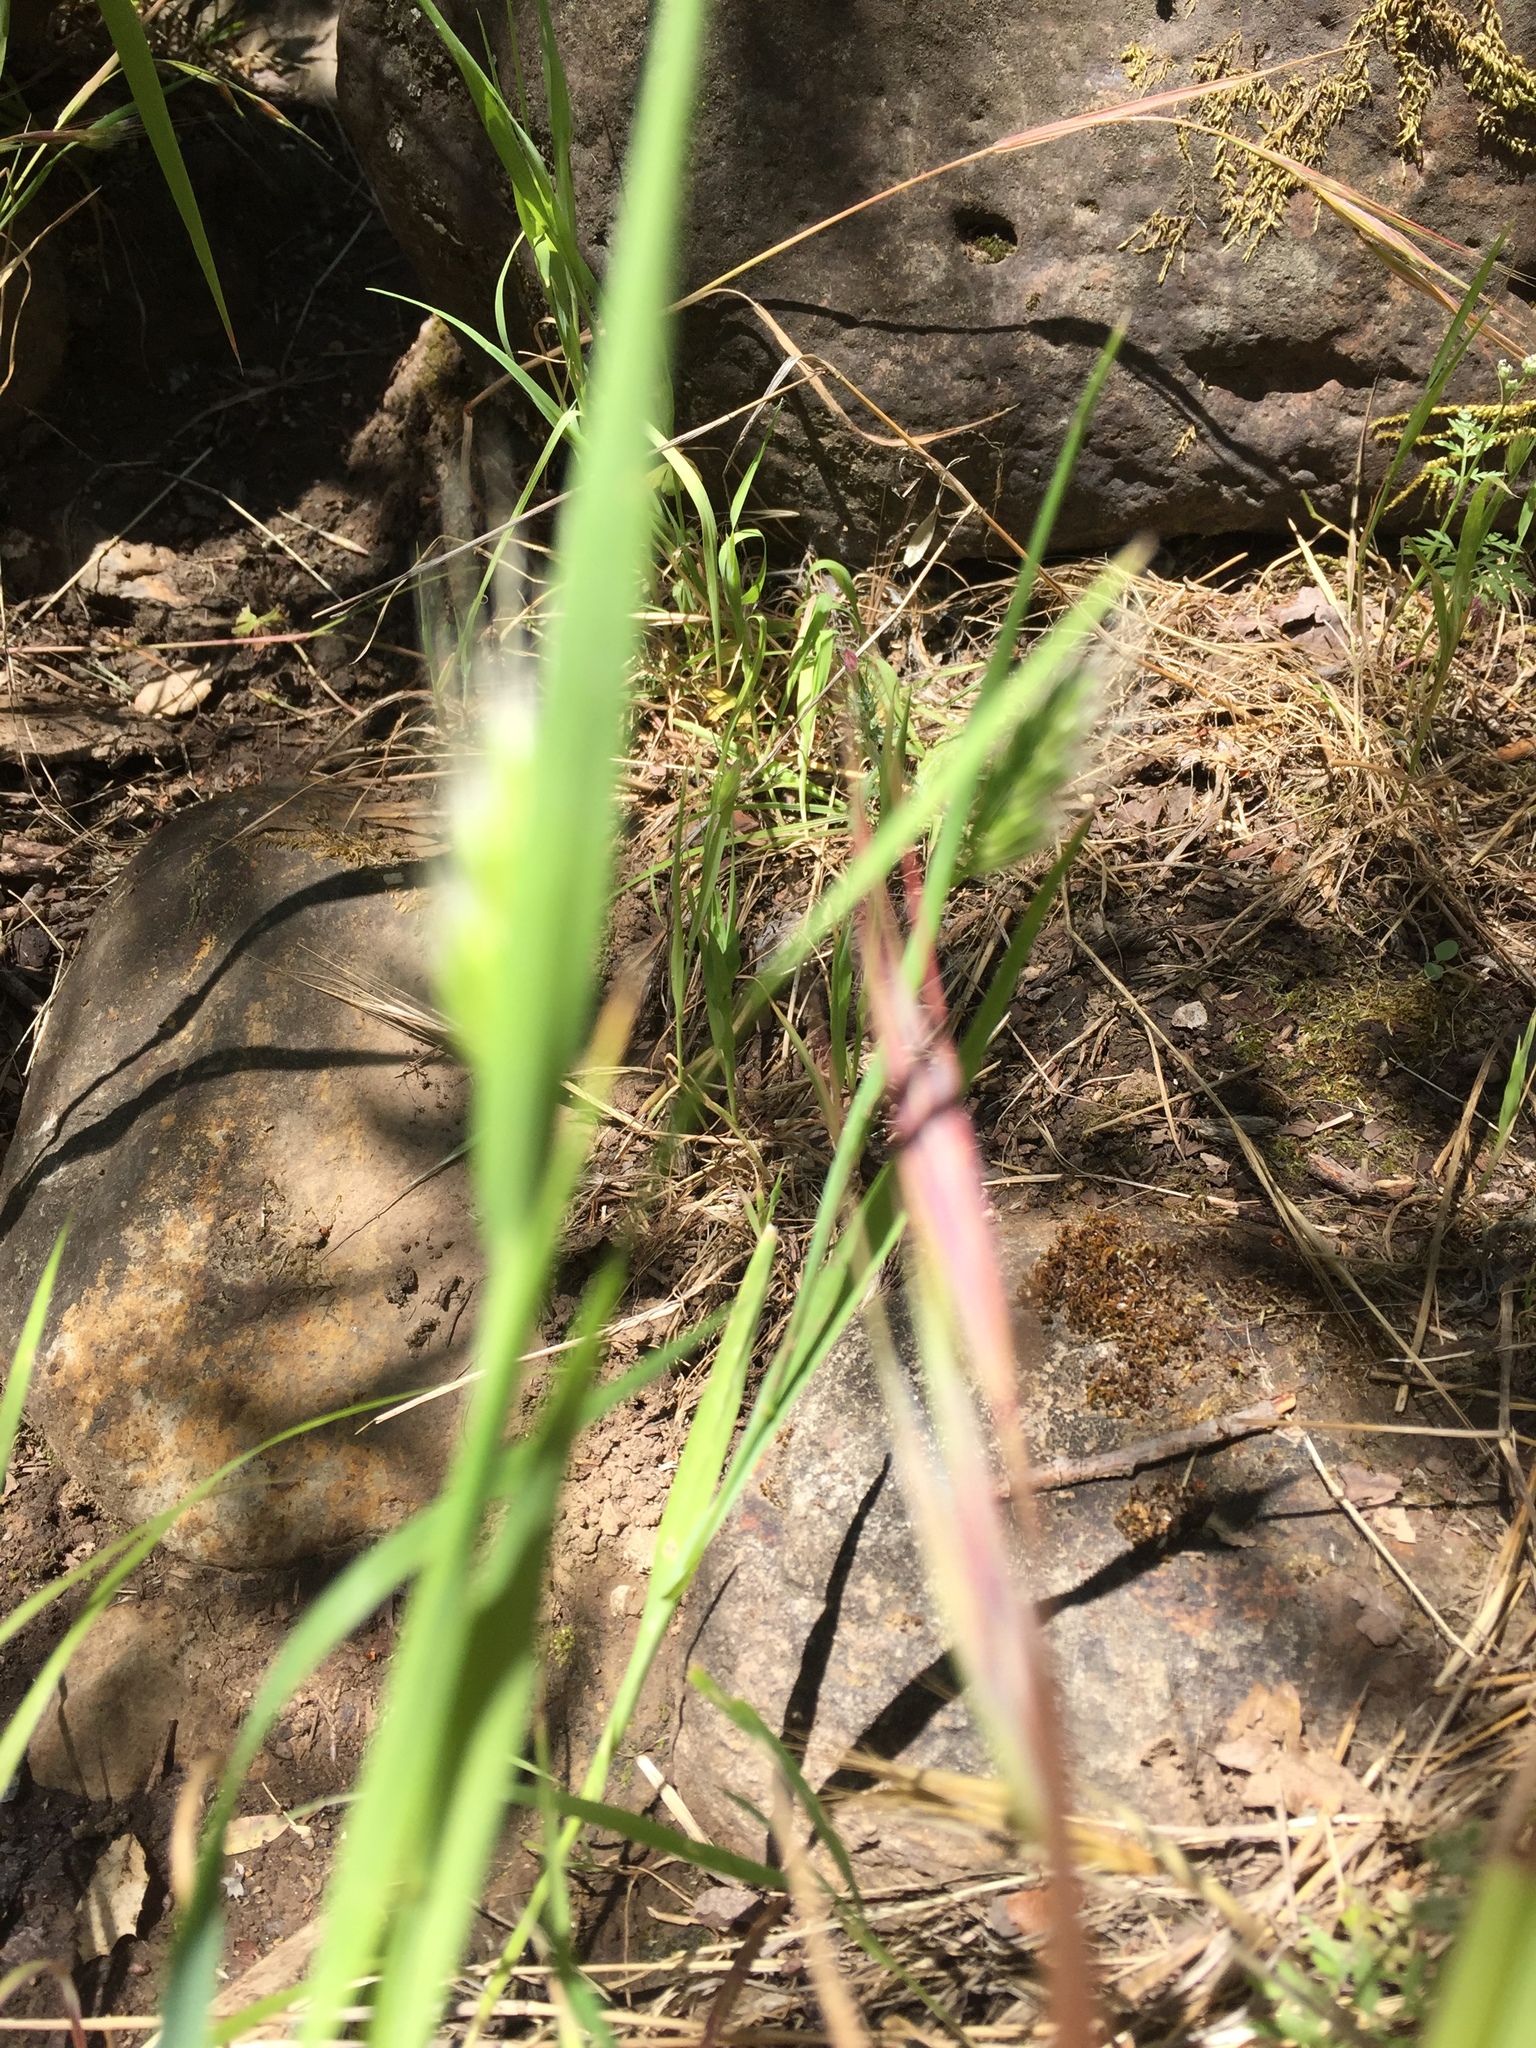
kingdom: Plantae
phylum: Tracheophyta
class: Liliopsida
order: Poales
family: Poaceae
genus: Cynosurus
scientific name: Cynosurus echinatus
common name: Rough dog's-tail
